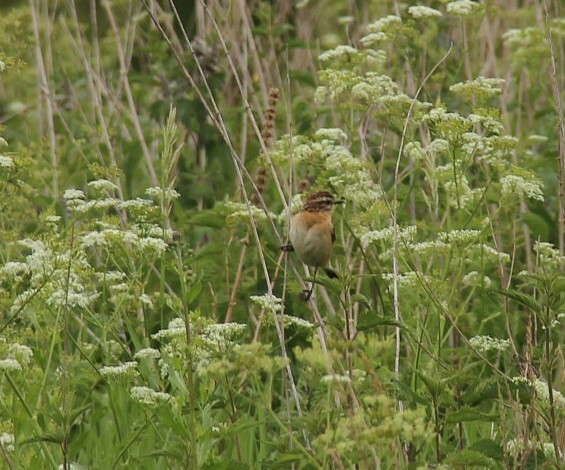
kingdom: Animalia
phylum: Chordata
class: Aves
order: Passeriformes
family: Muscicapidae
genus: Saxicola
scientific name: Saxicola rubetra
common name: Whinchat
